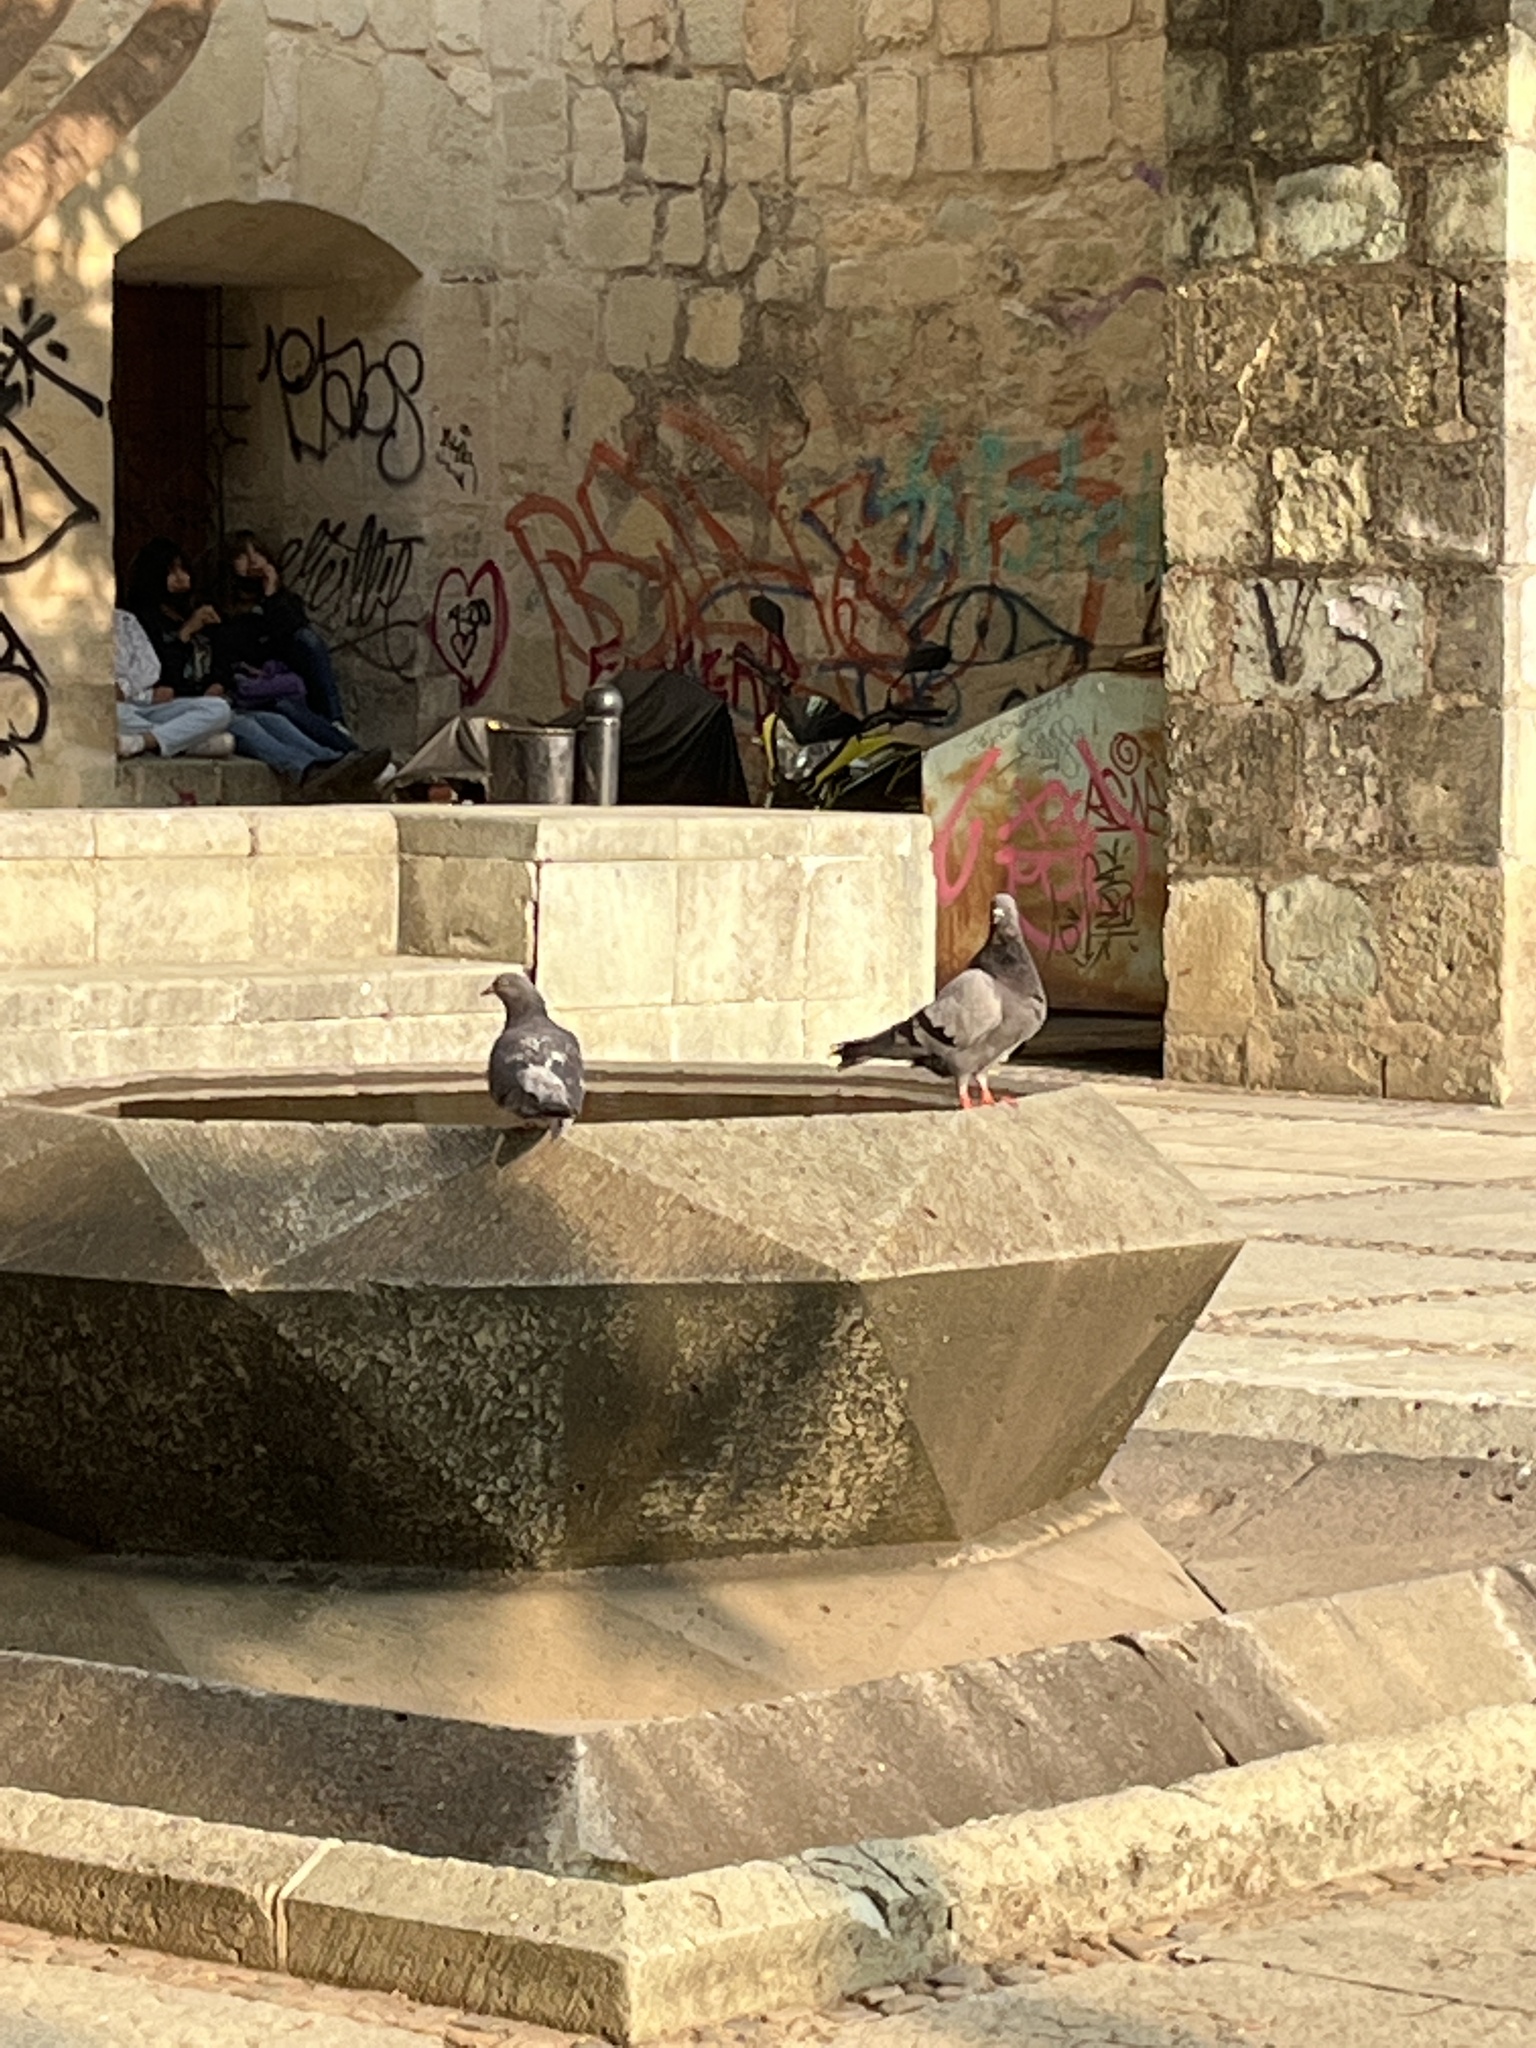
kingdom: Animalia
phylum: Chordata
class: Aves
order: Columbiformes
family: Columbidae
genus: Columba
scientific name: Columba livia
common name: Rock pigeon
